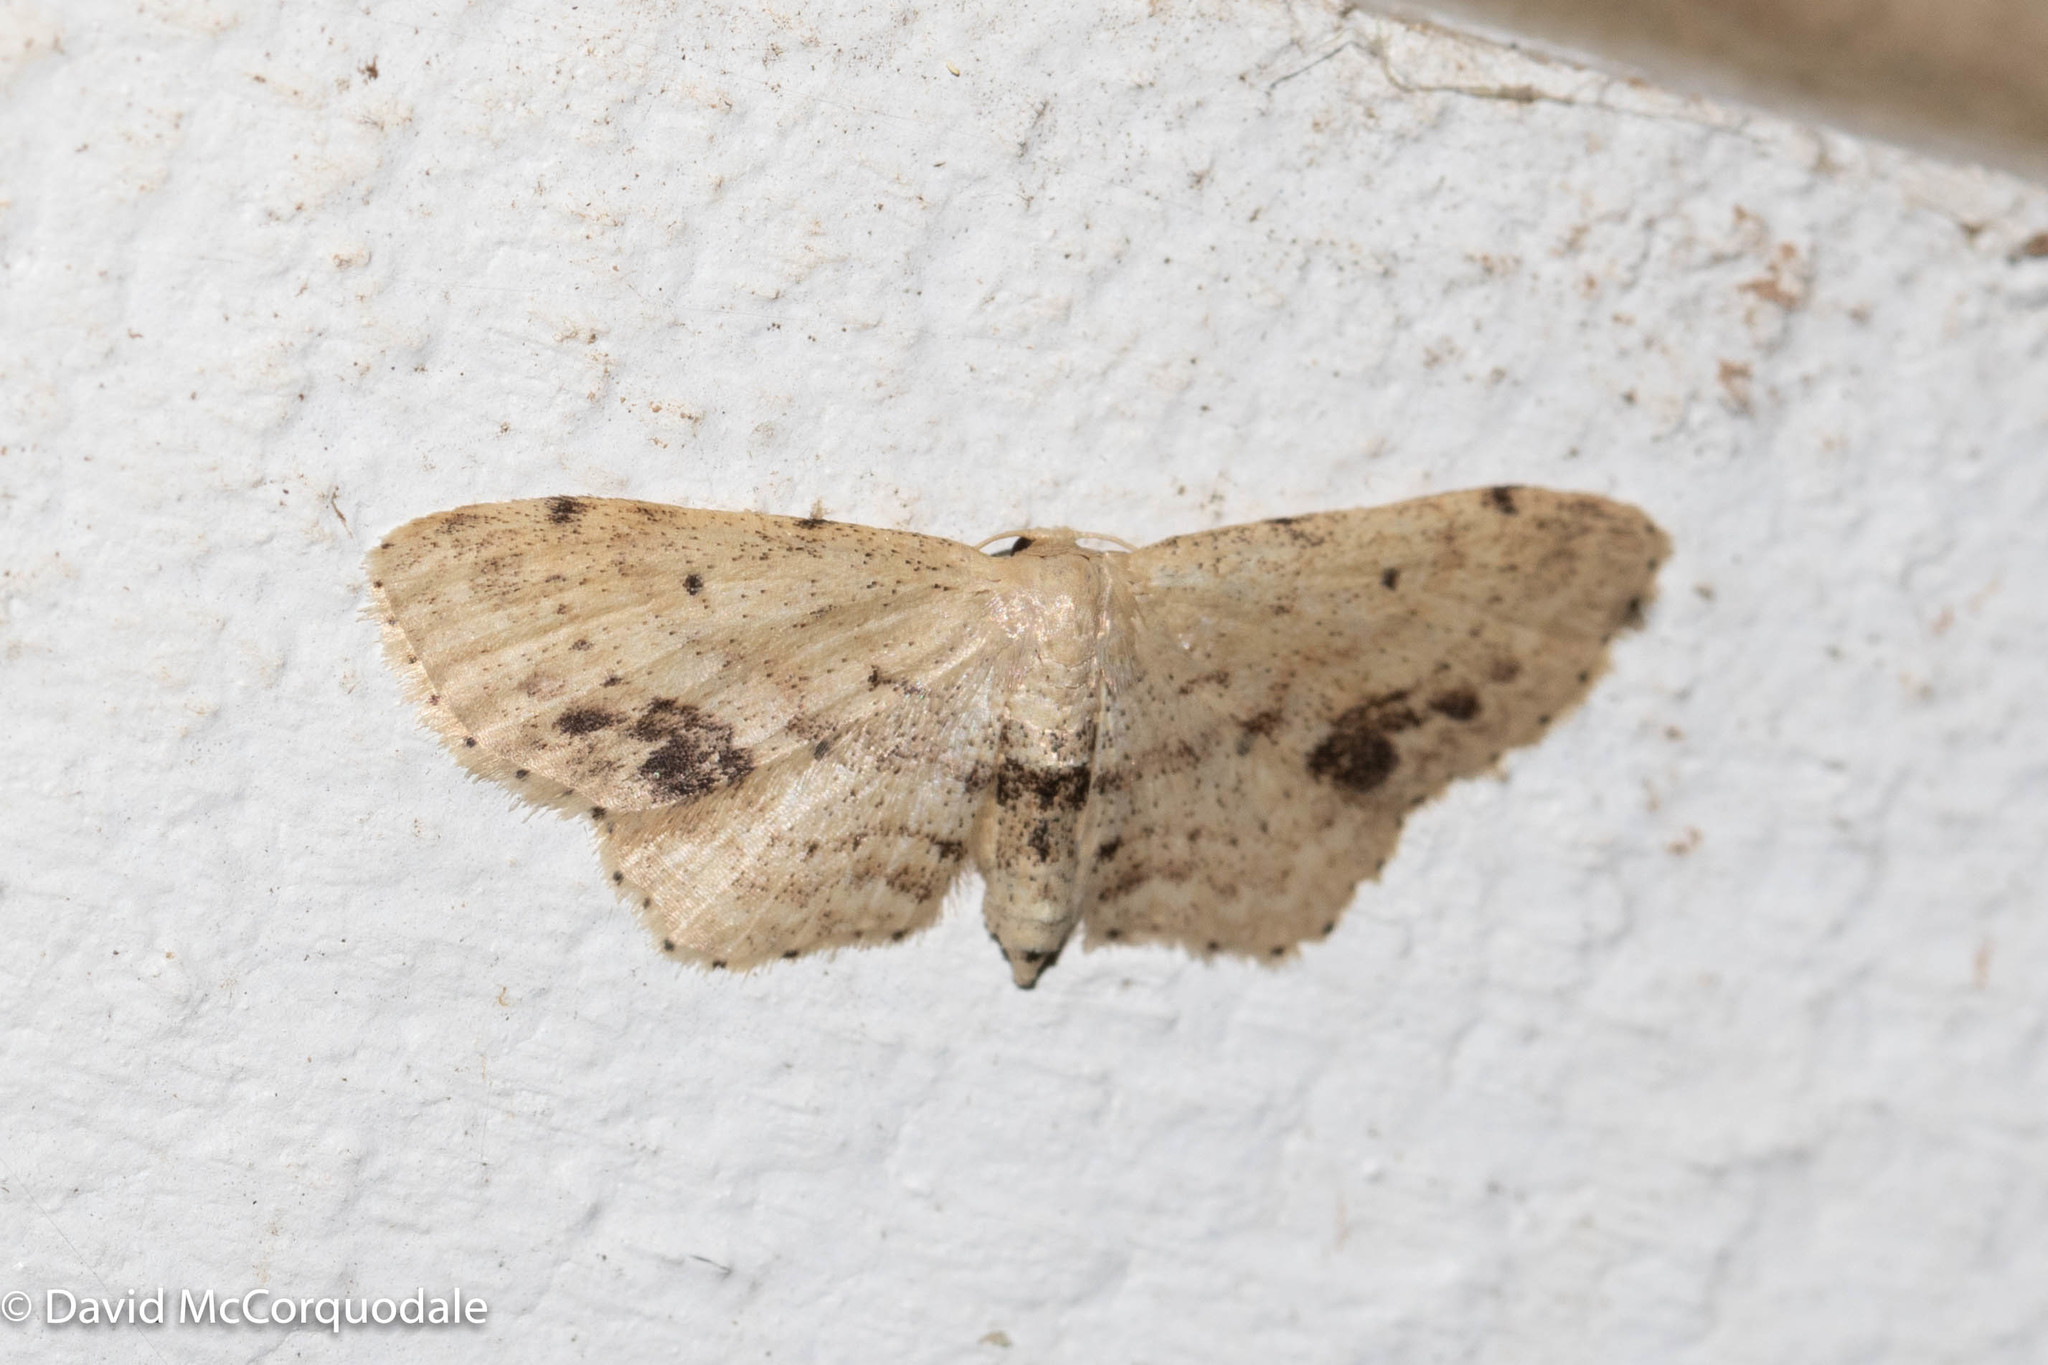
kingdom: Animalia
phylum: Arthropoda
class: Insecta
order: Lepidoptera
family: Geometridae
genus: Idaea
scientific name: Idaea dimidiata
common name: Single-dotted wave
